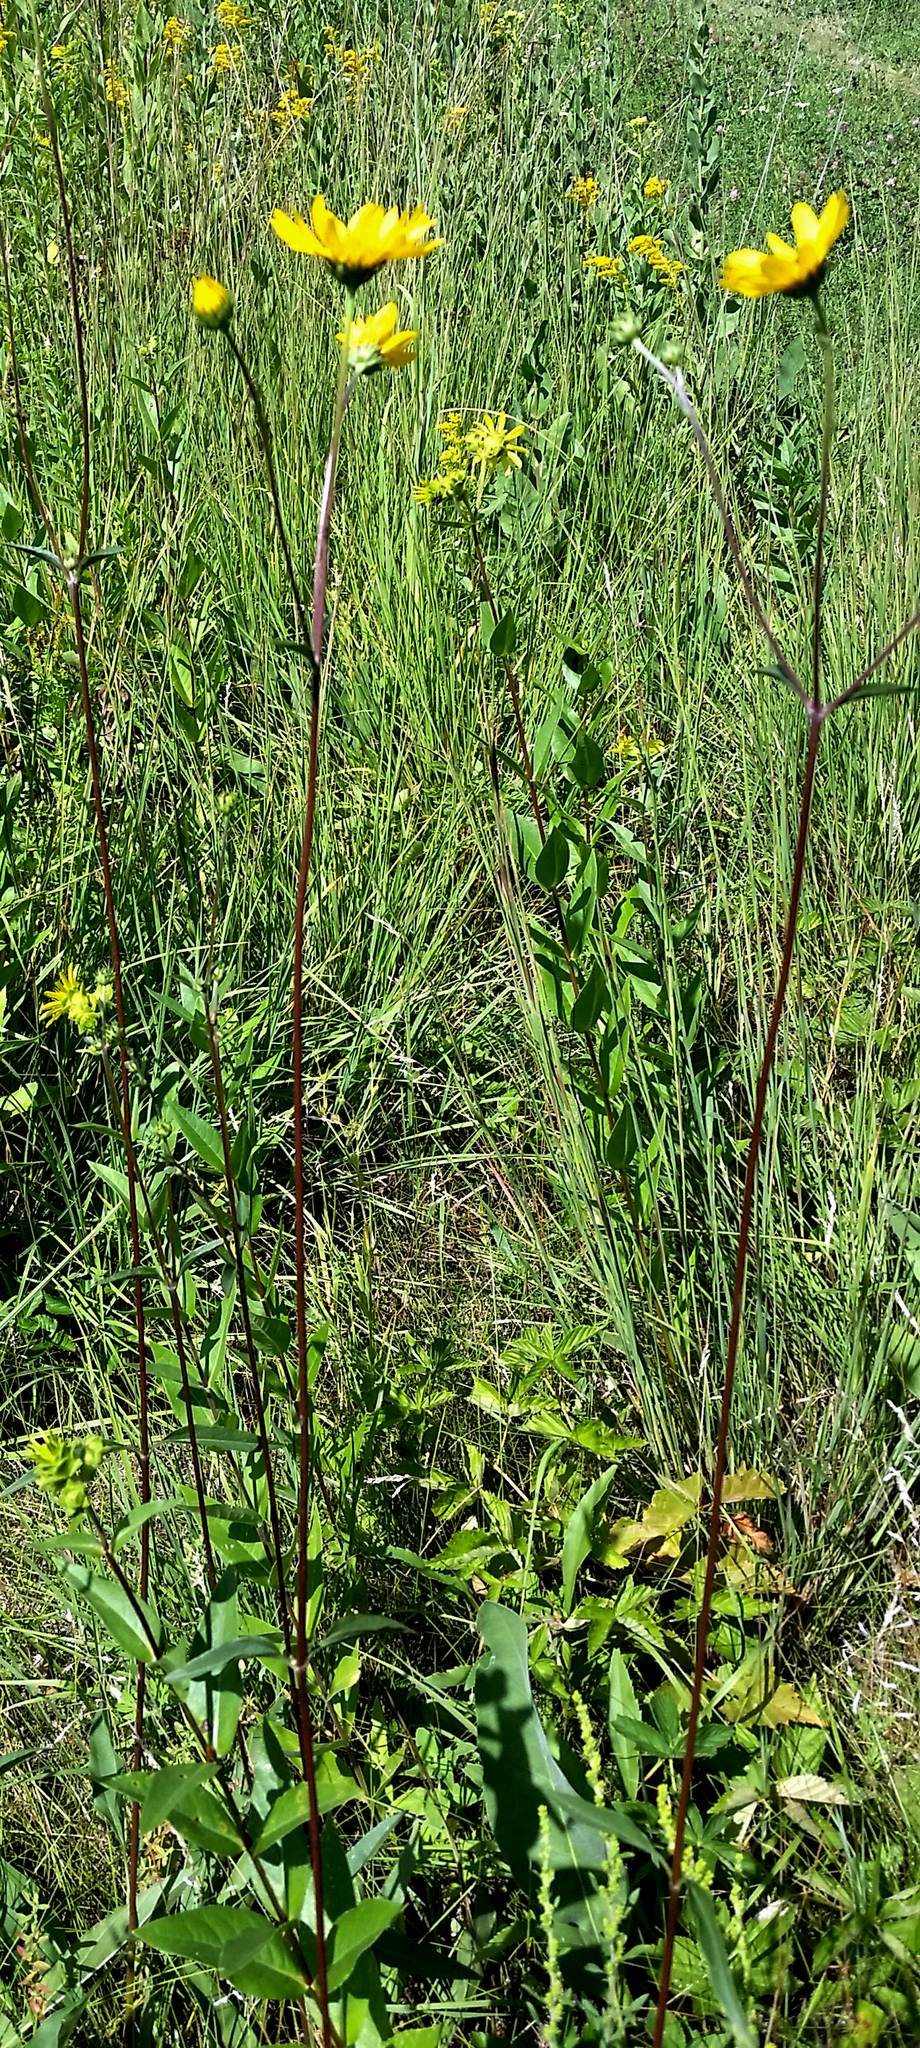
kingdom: Plantae
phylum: Tracheophyta
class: Magnoliopsida
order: Asterales
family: Asteraceae
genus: Helianthus
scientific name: Helianthus occidentalis
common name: Western sunflower
